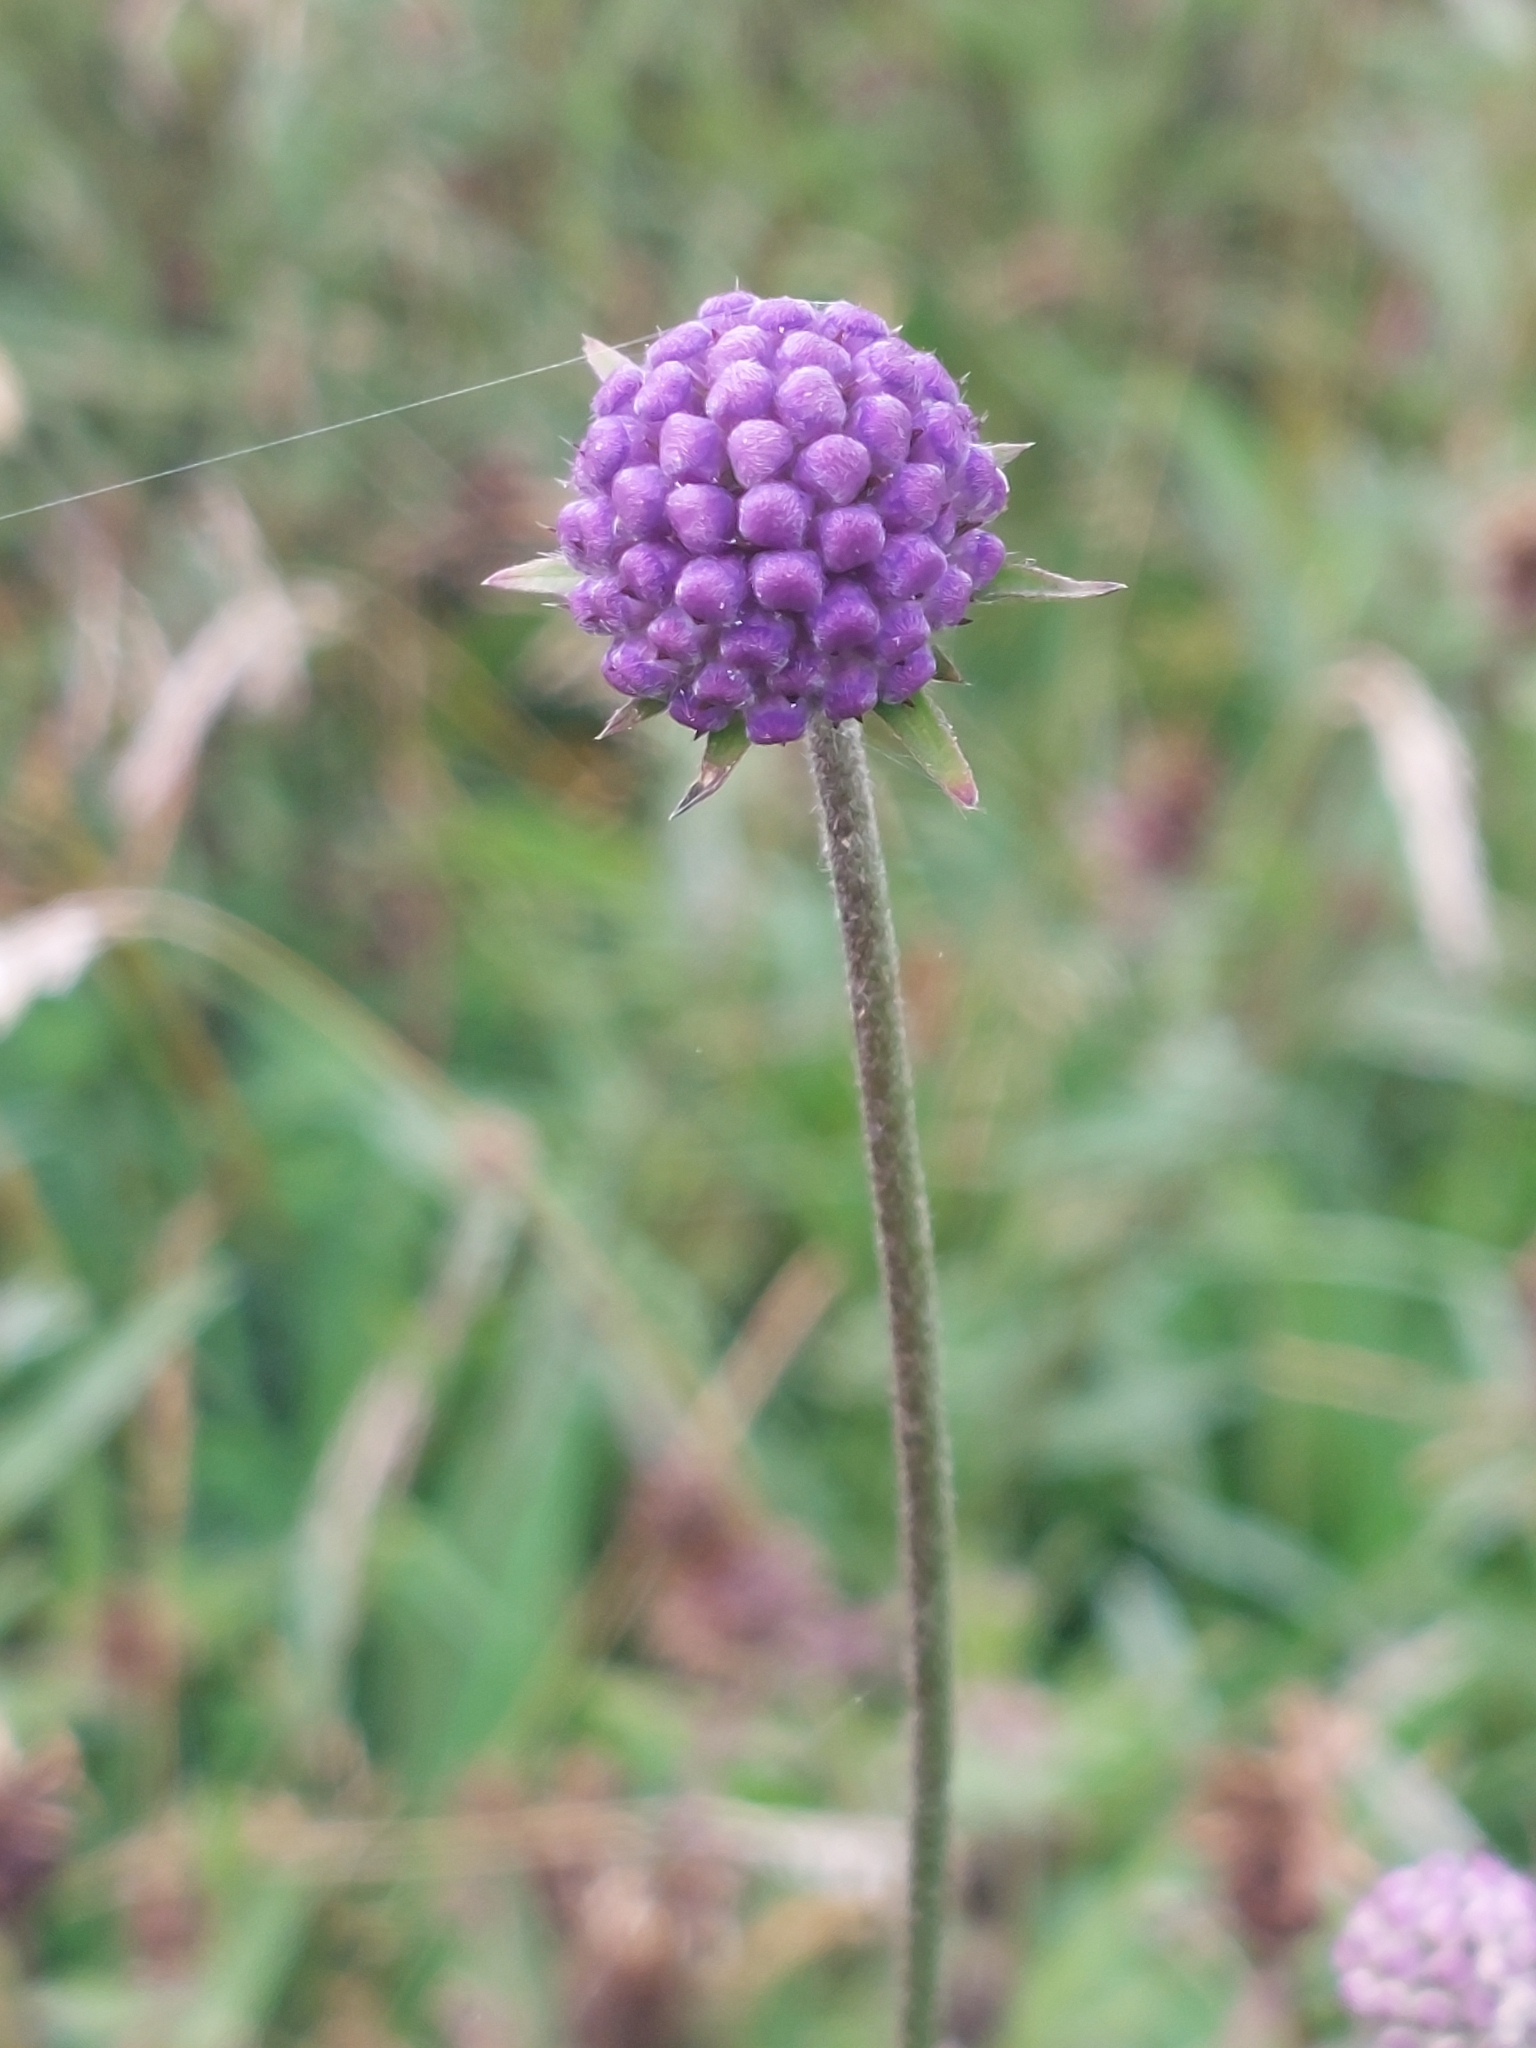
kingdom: Plantae
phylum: Tracheophyta
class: Magnoliopsida
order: Dipsacales
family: Caprifoliaceae
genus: Succisa
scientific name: Succisa pratensis
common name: Devil's-bit
